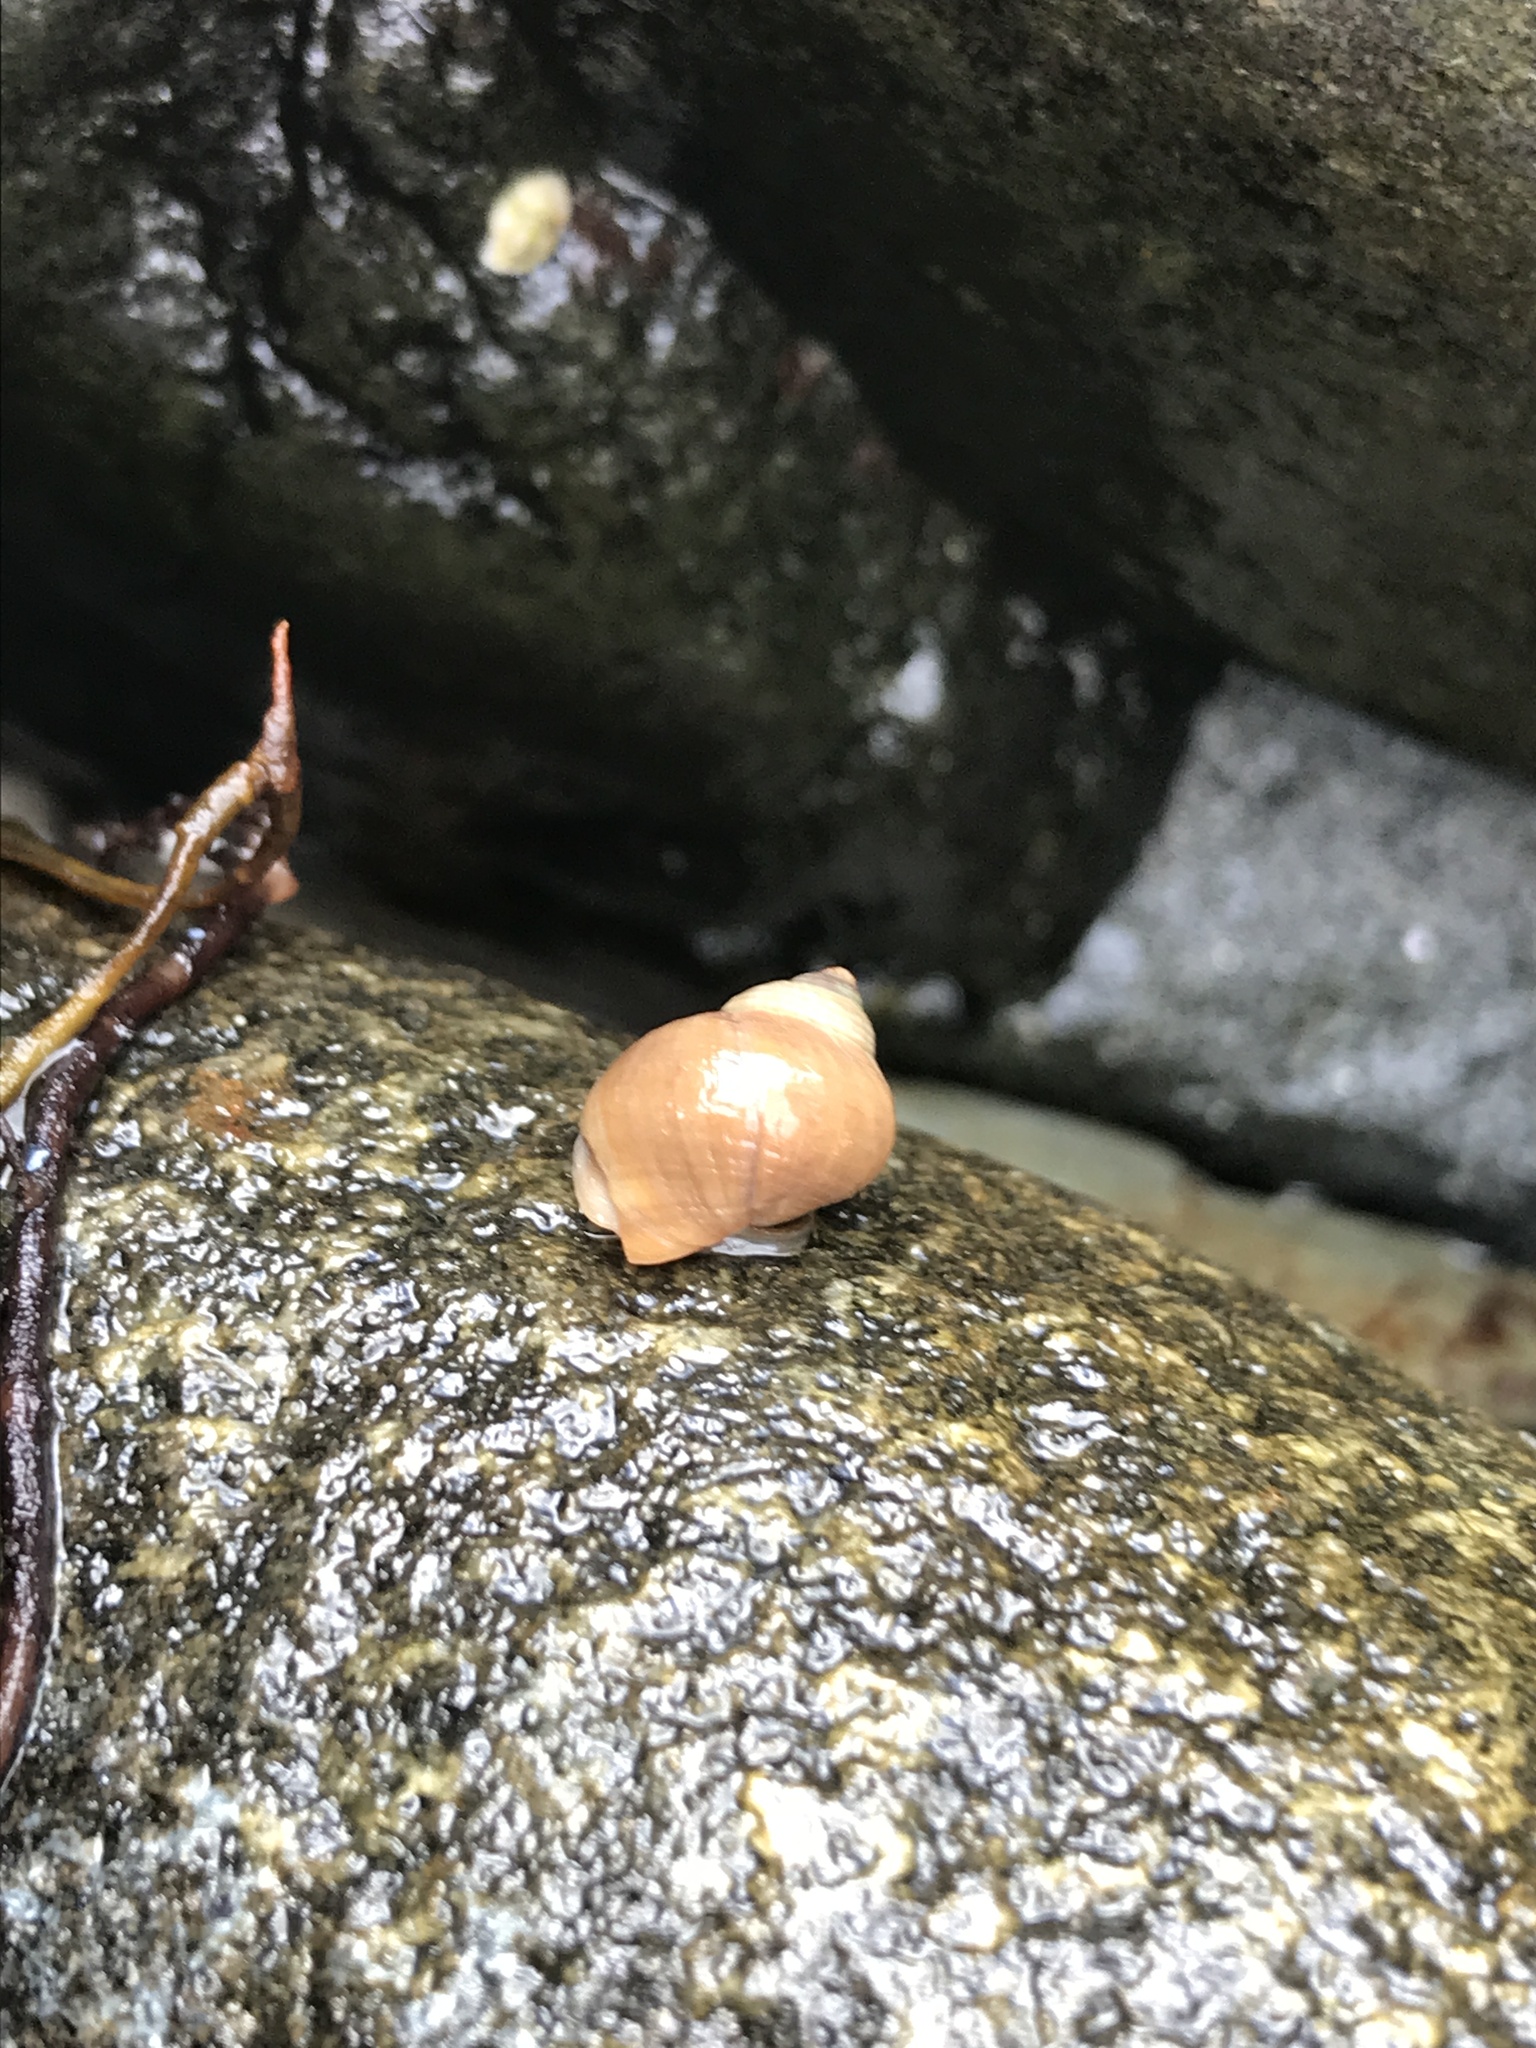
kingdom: Animalia
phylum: Mollusca
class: Gastropoda
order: Littorinimorpha
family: Littorinidae
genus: Littorina
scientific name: Littorina saxatilis
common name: Black-lined periwinkle
